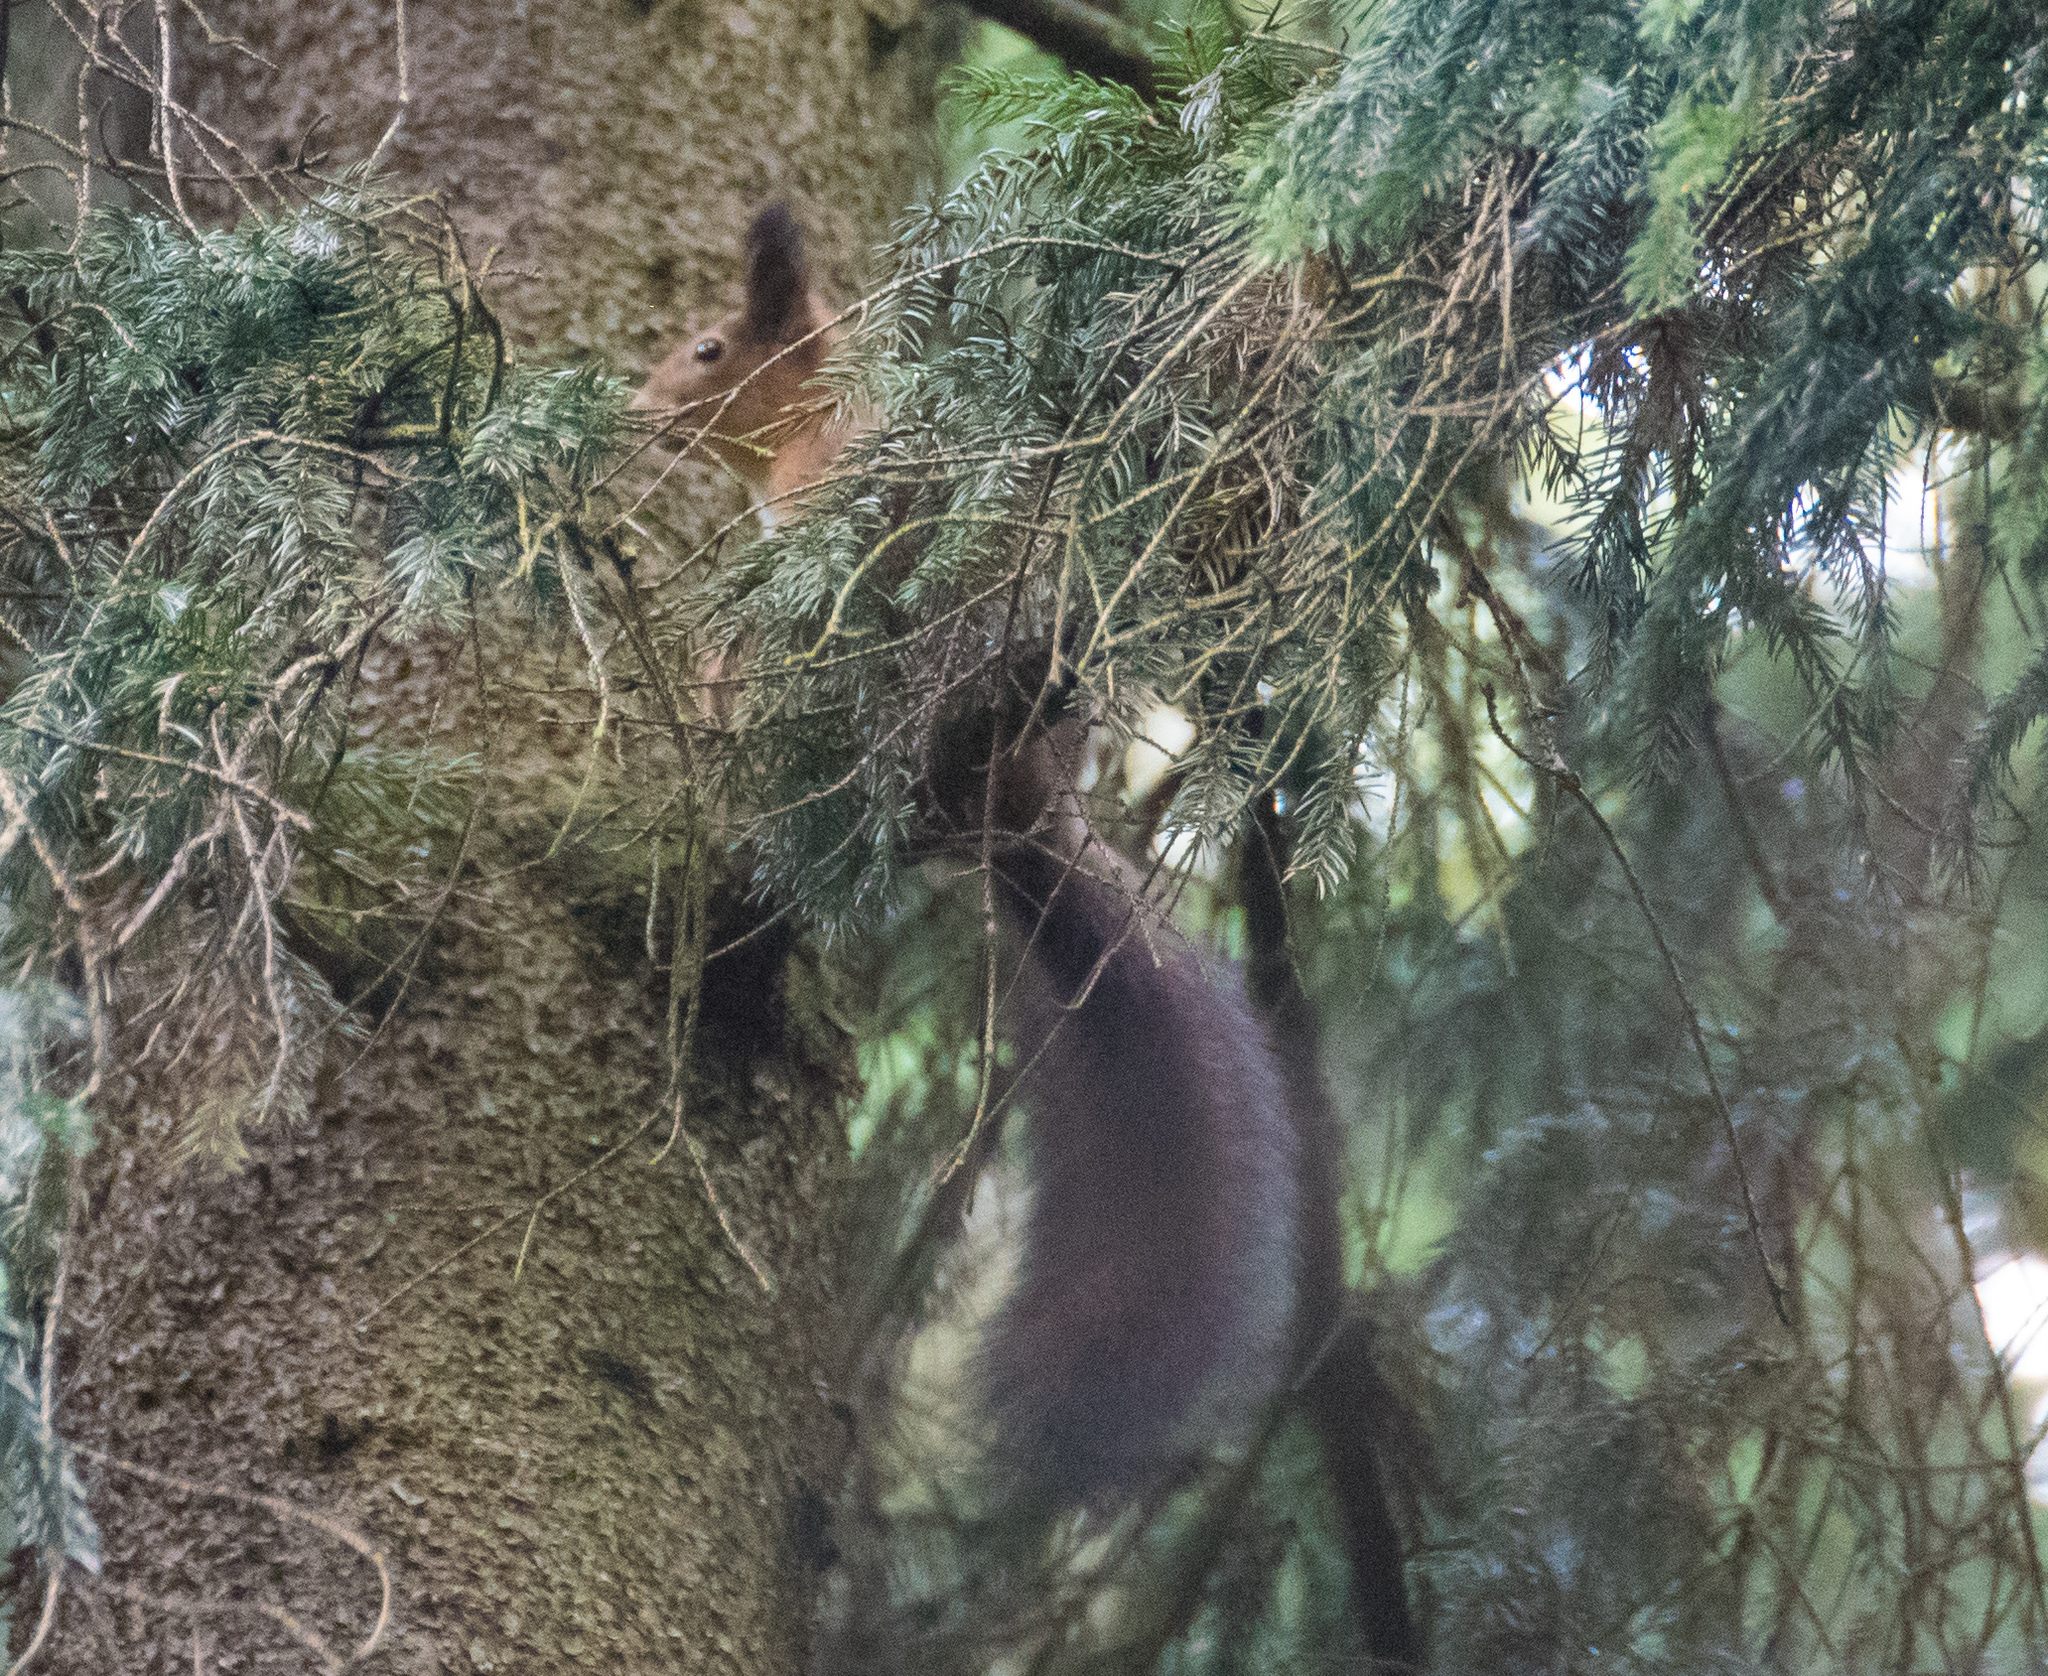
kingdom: Animalia
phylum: Chordata
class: Mammalia
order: Rodentia
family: Sciuridae
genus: Sciurus
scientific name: Sciurus vulgaris
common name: Eurasian red squirrel
